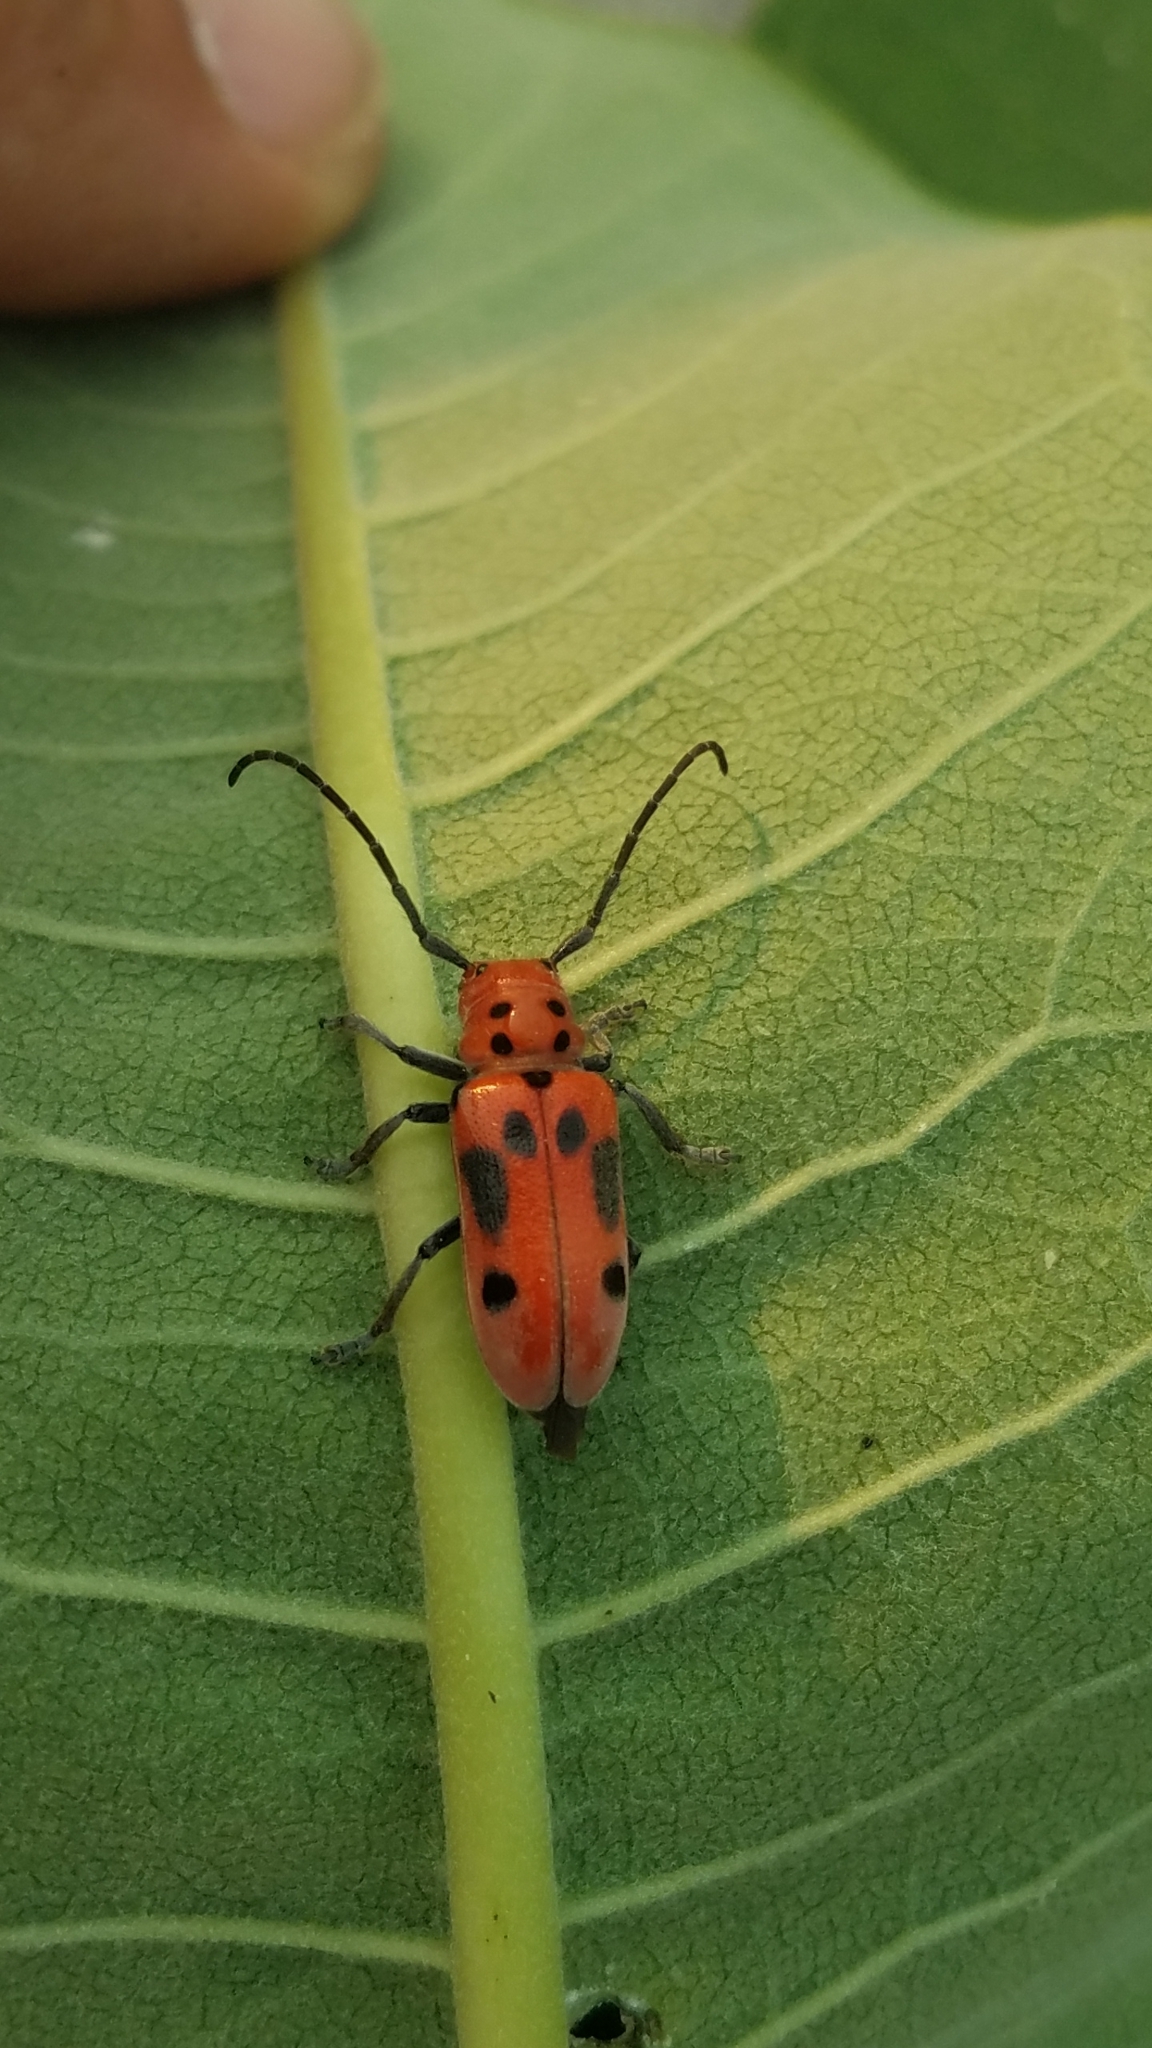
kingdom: Animalia
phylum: Arthropoda
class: Insecta
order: Coleoptera
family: Cerambycidae
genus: Tetraopes
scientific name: Tetraopes tetrophthalmus
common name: Red milkweed beetle
